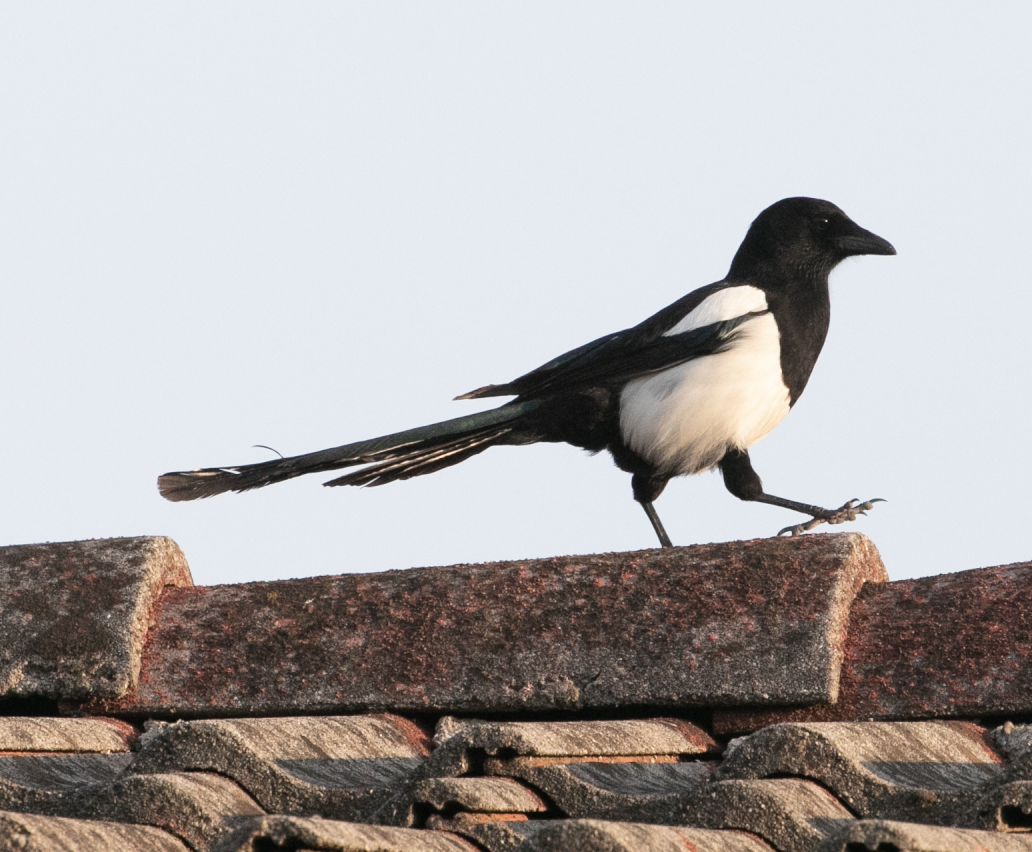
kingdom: Animalia
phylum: Chordata
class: Aves
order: Passeriformes
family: Corvidae
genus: Pica
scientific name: Pica pica
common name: Eurasian magpie
